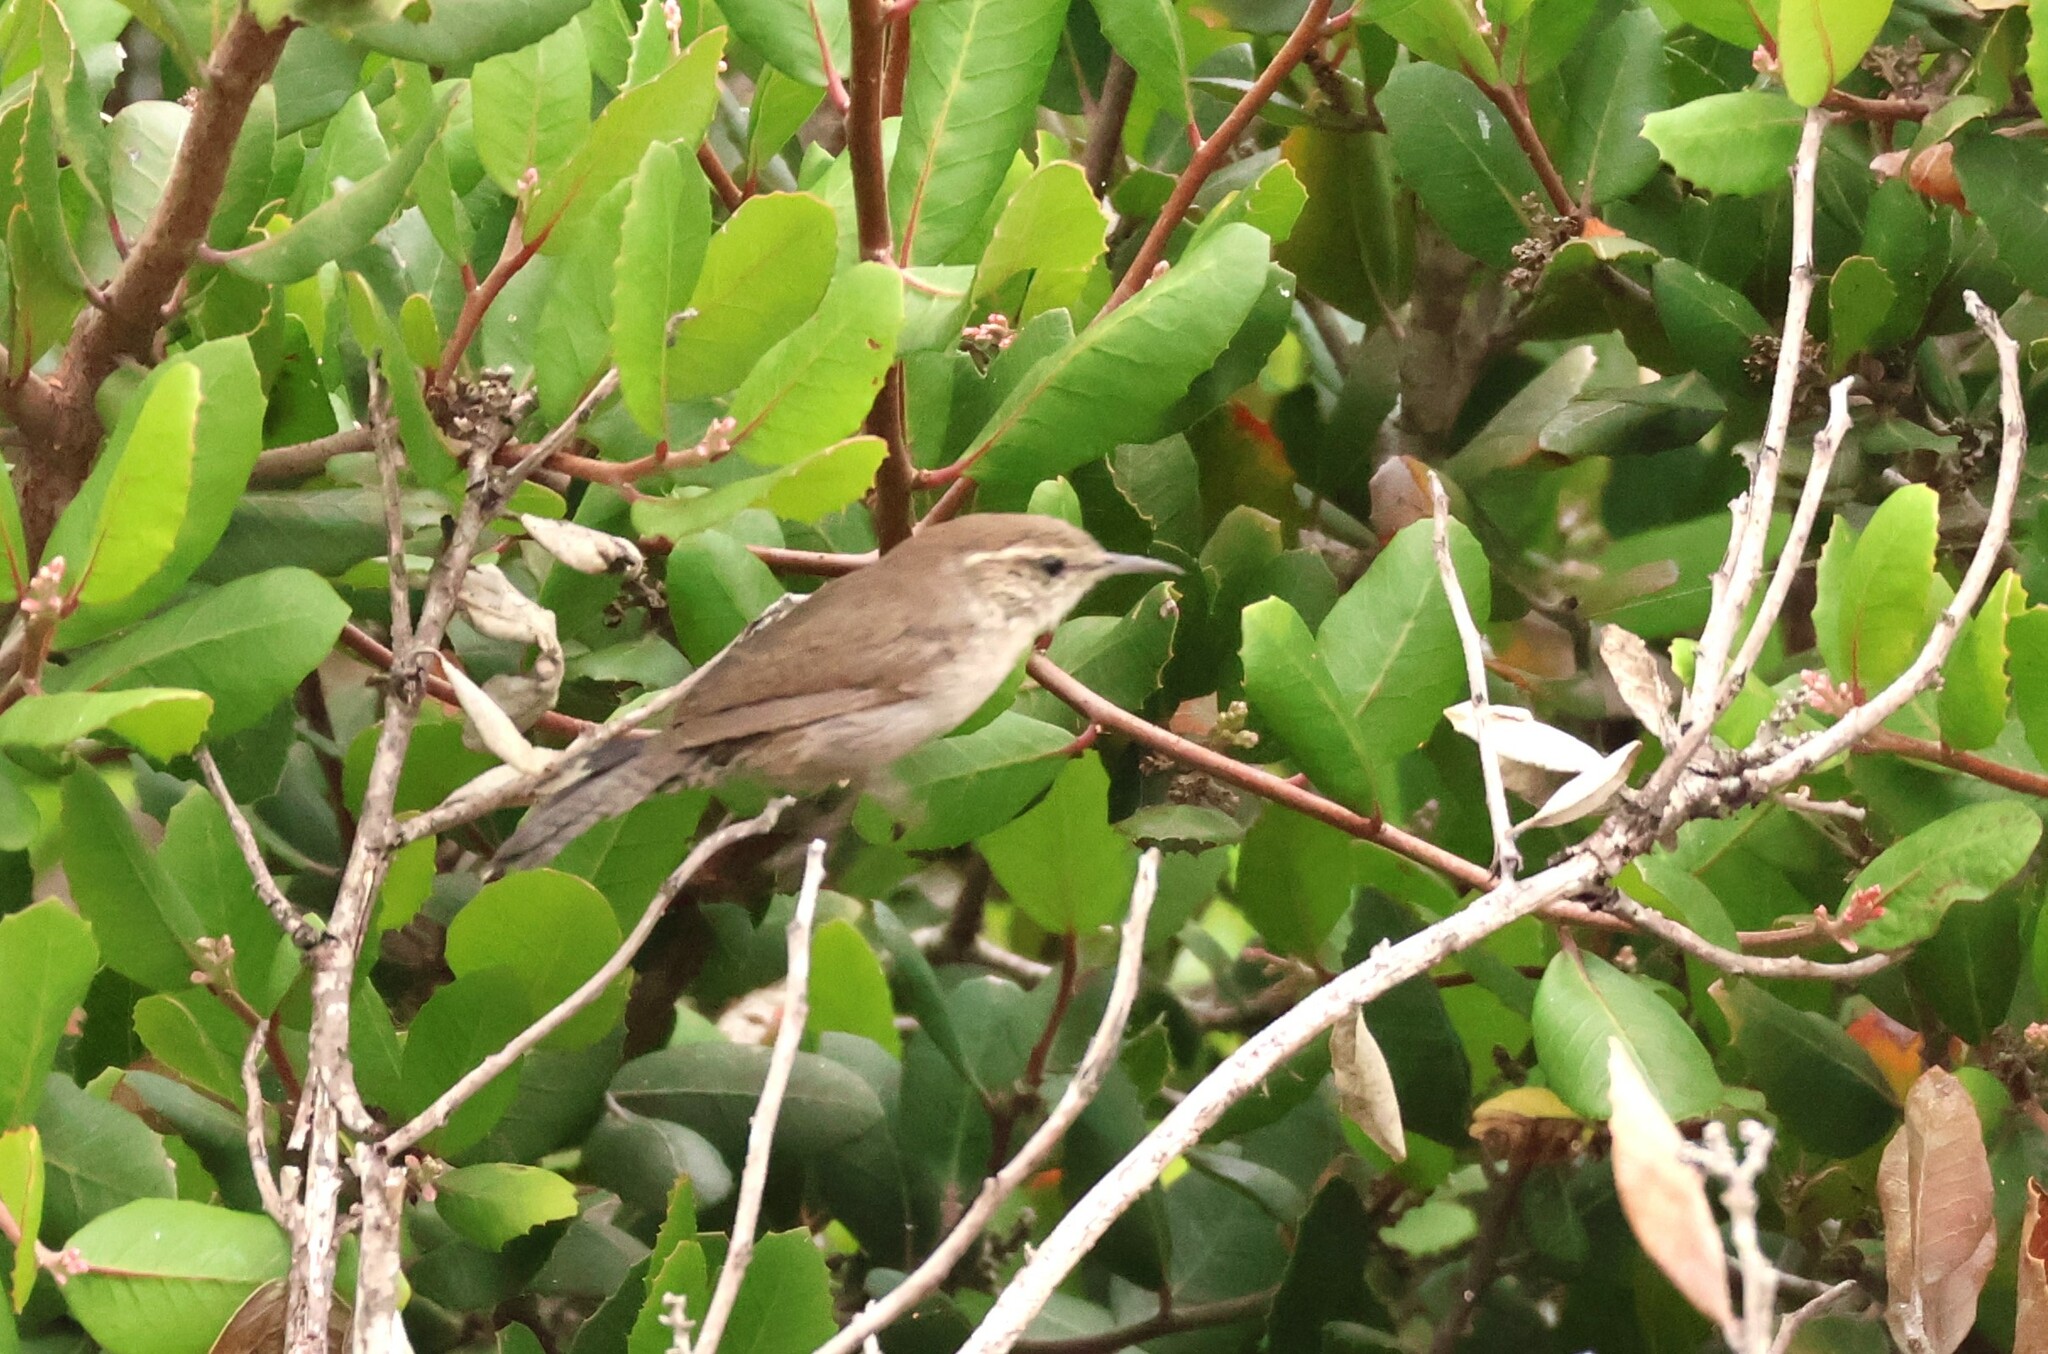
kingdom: Animalia
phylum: Chordata
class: Aves
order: Passeriformes
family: Troglodytidae
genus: Thryomanes
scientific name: Thryomanes bewickii
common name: Bewick's wren
